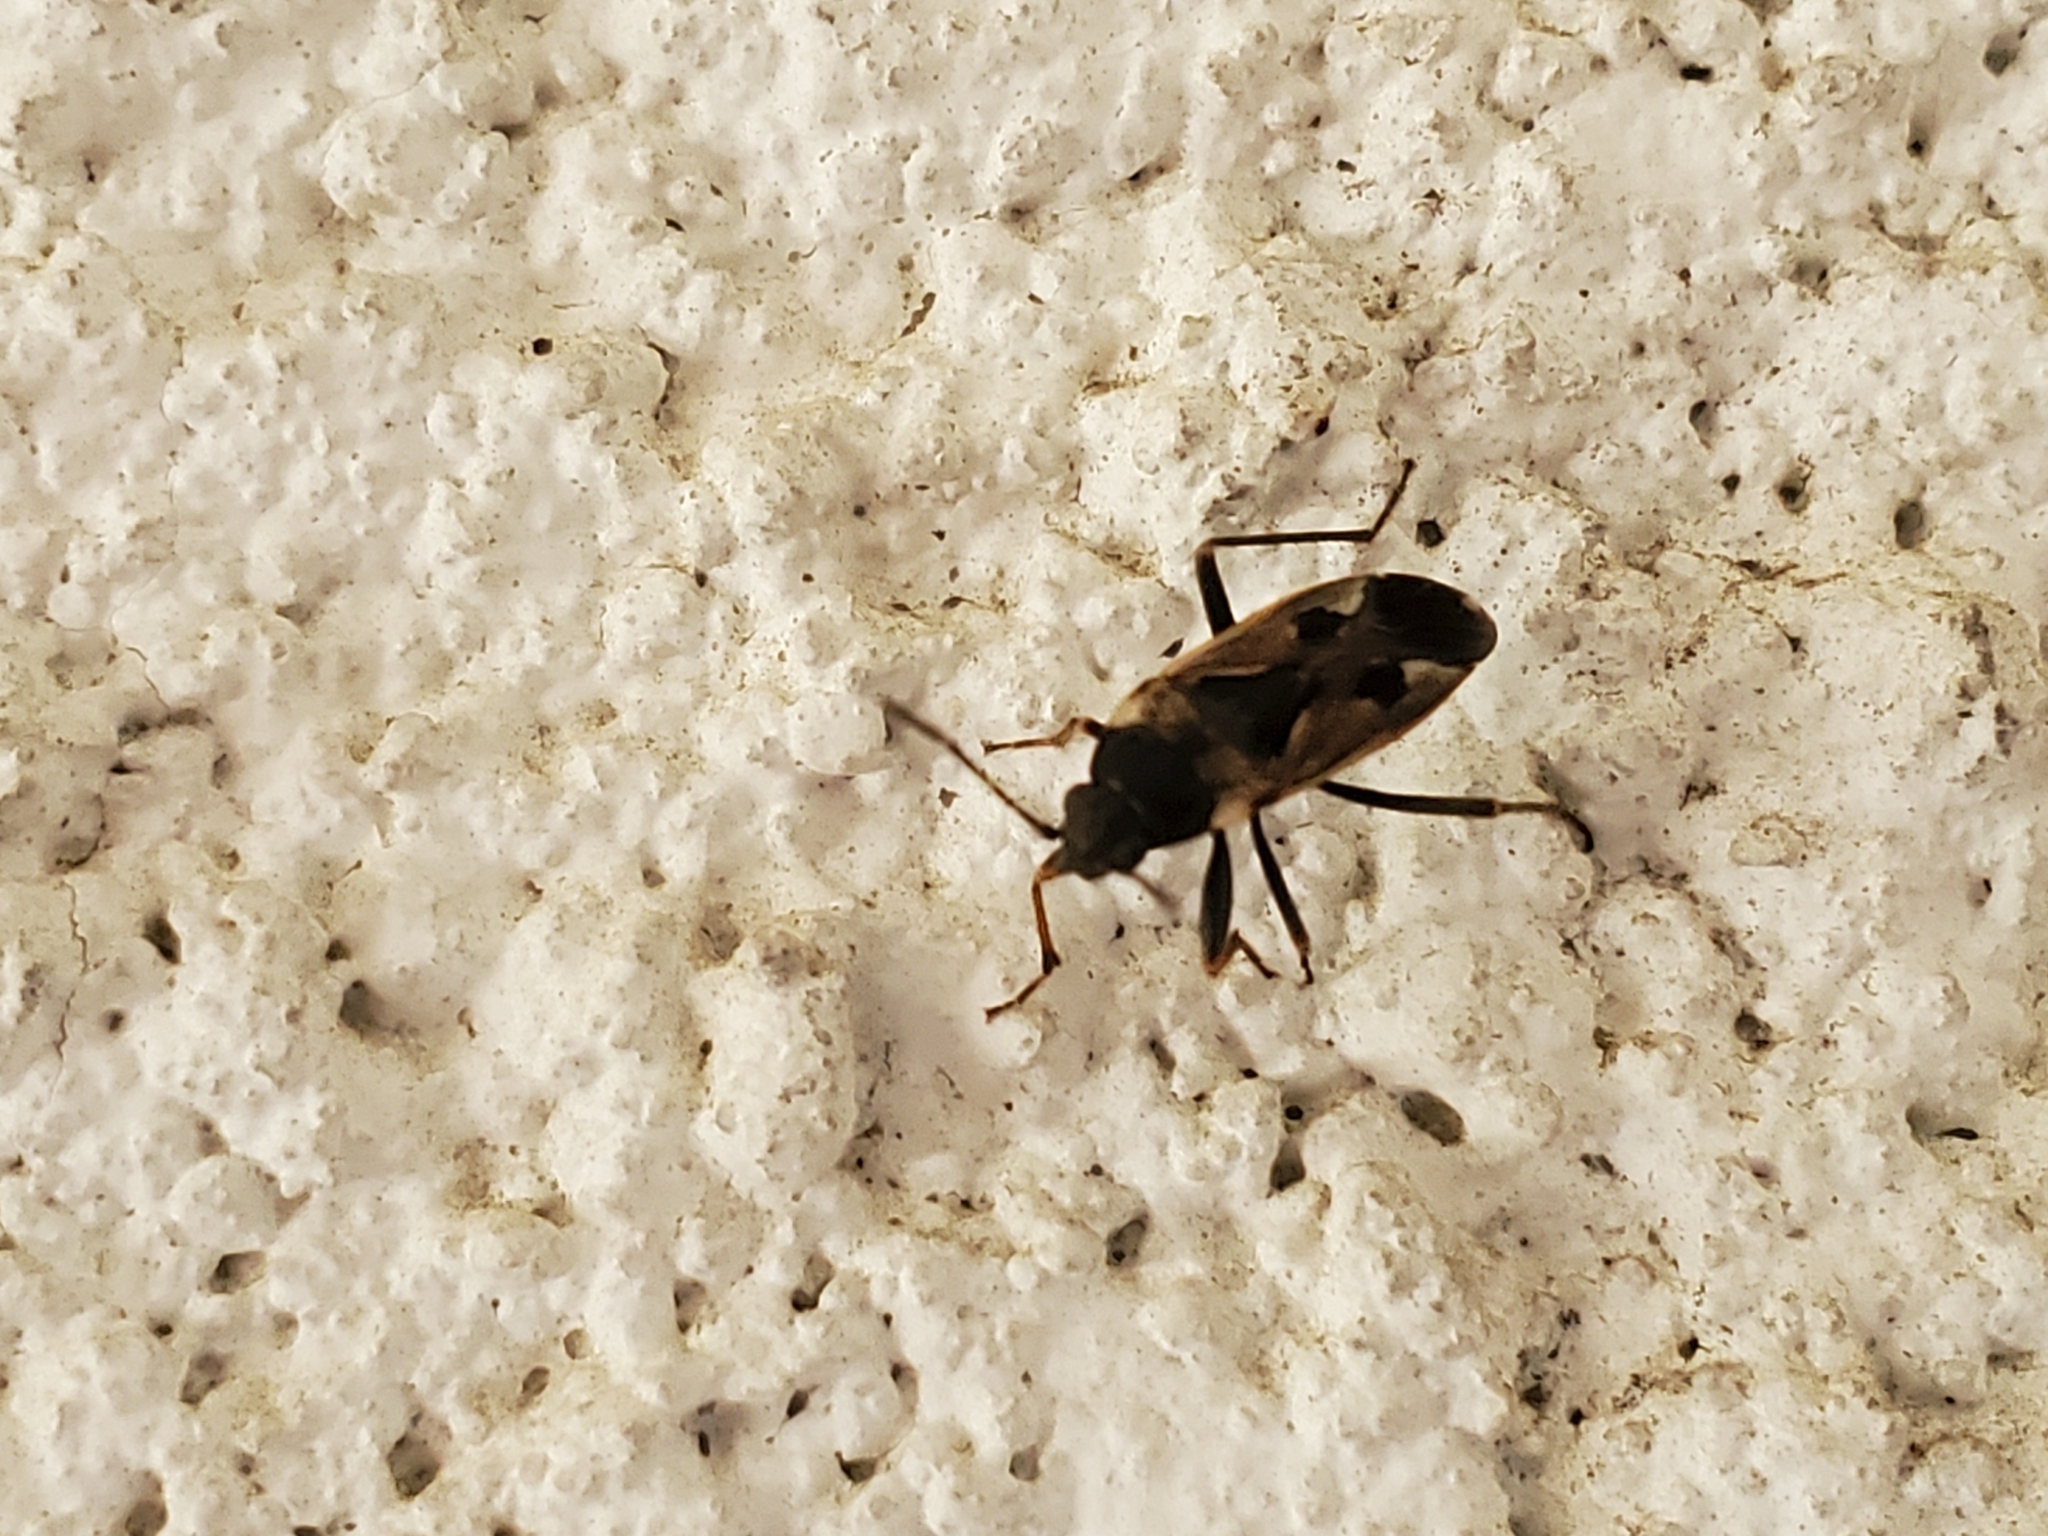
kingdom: Animalia
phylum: Arthropoda
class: Insecta
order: Hemiptera
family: Rhyparochromidae
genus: Rhyparochromus
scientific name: Rhyparochromus vulgaris
